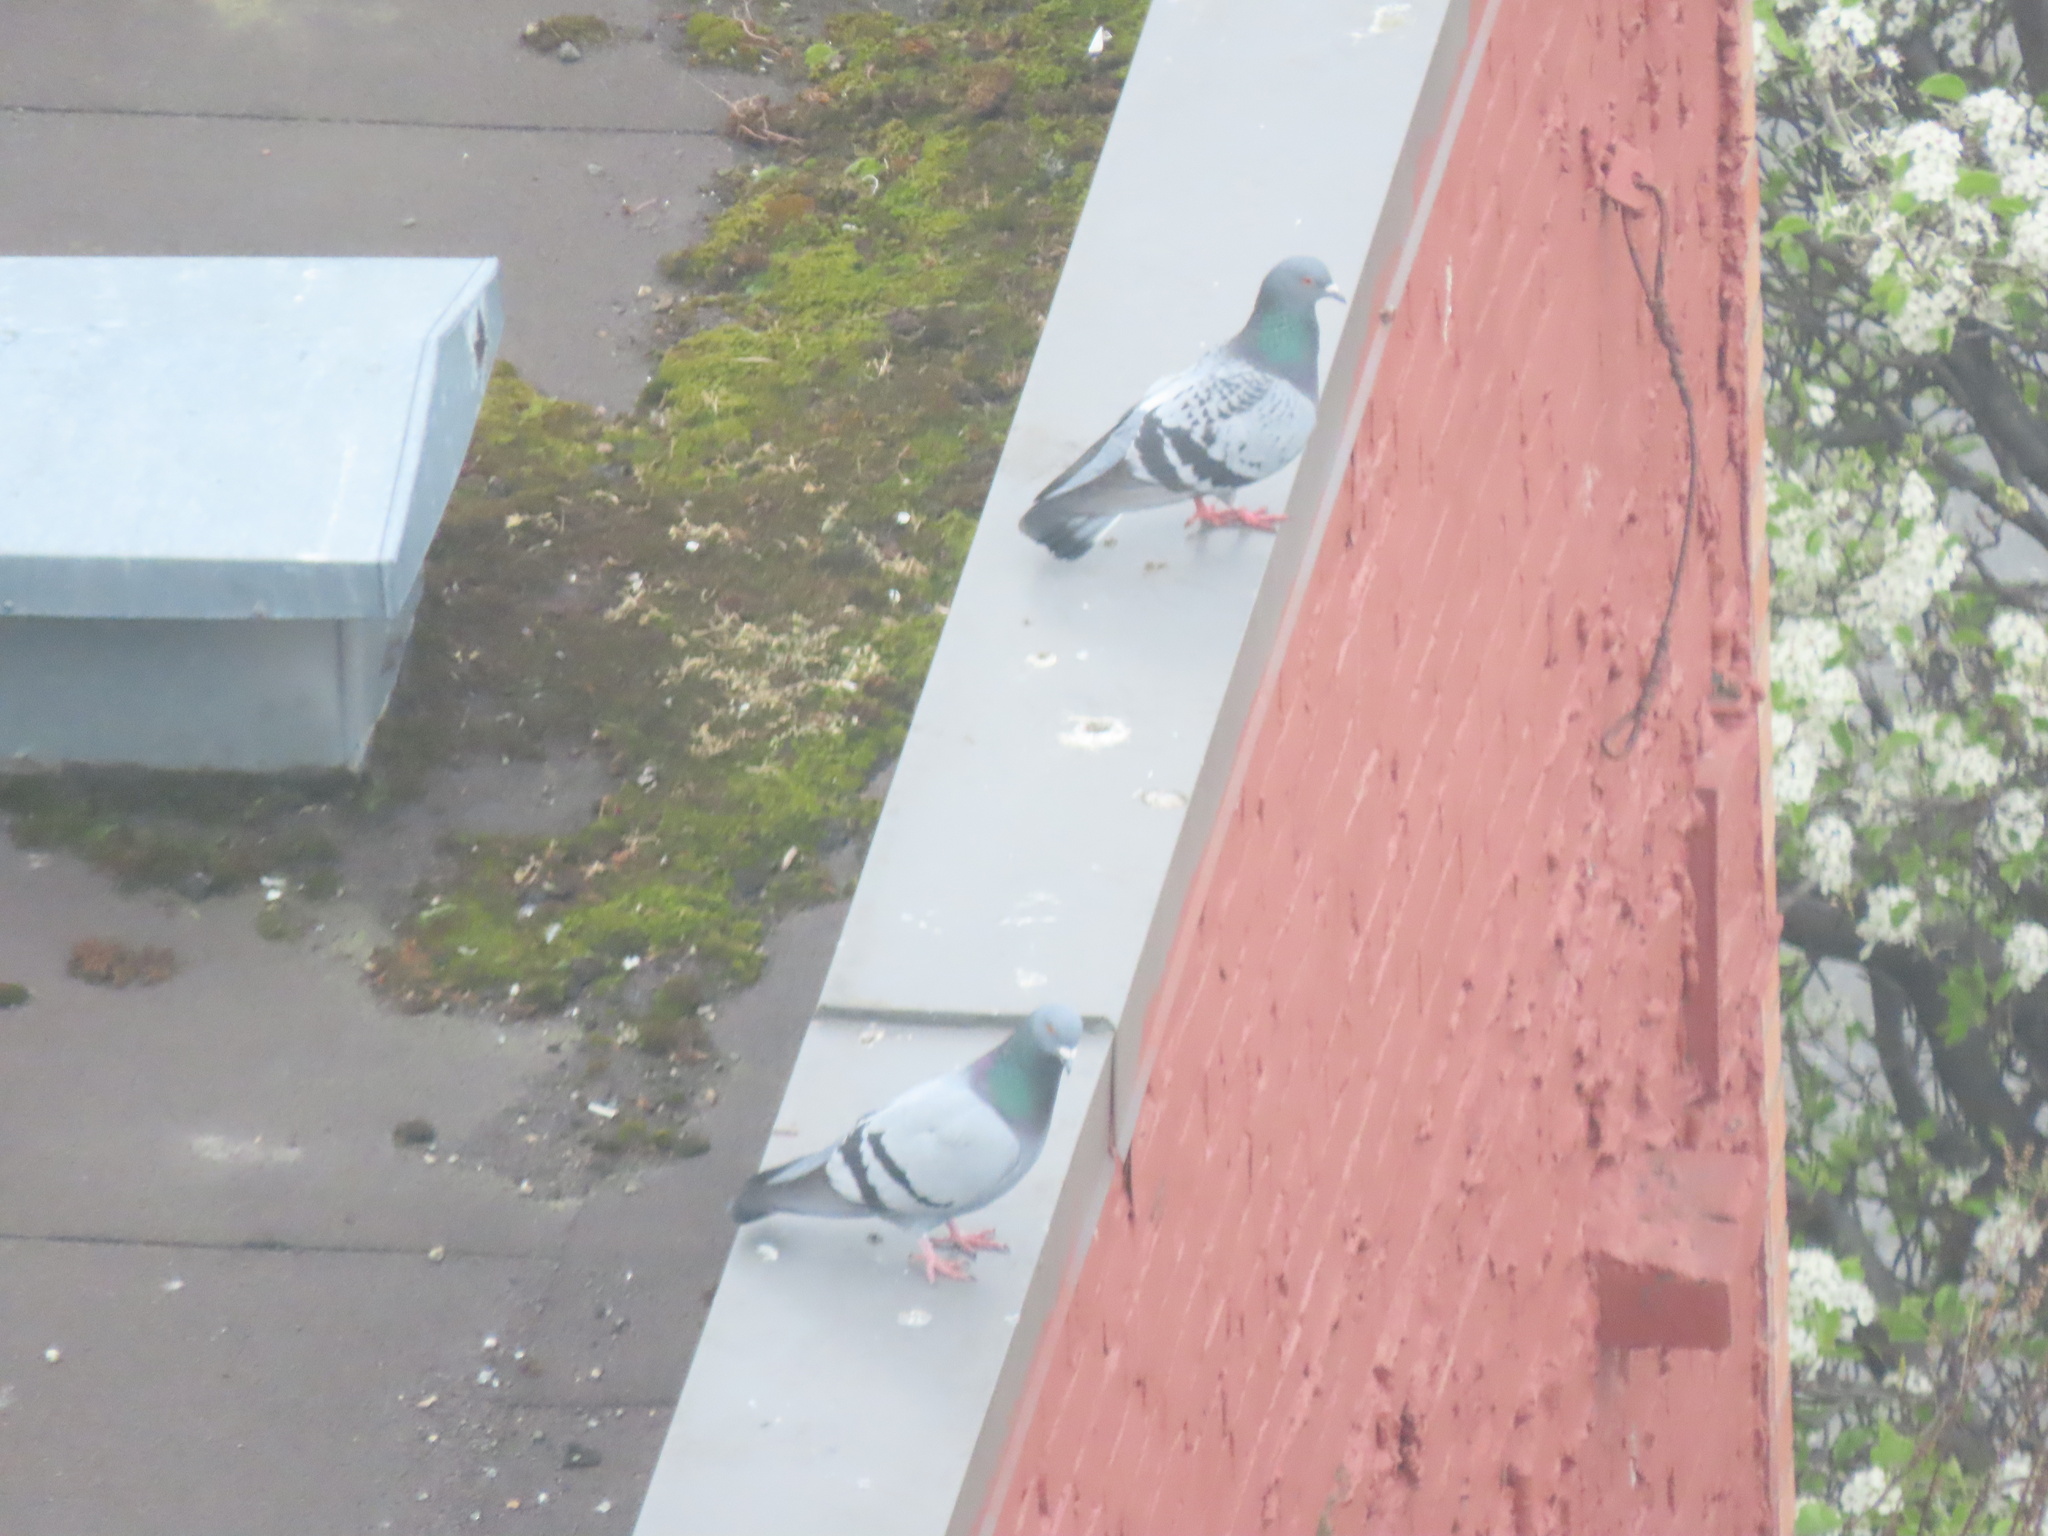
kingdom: Animalia
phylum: Chordata
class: Aves
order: Columbiformes
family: Columbidae
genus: Columba
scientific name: Columba livia
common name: Rock pigeon
